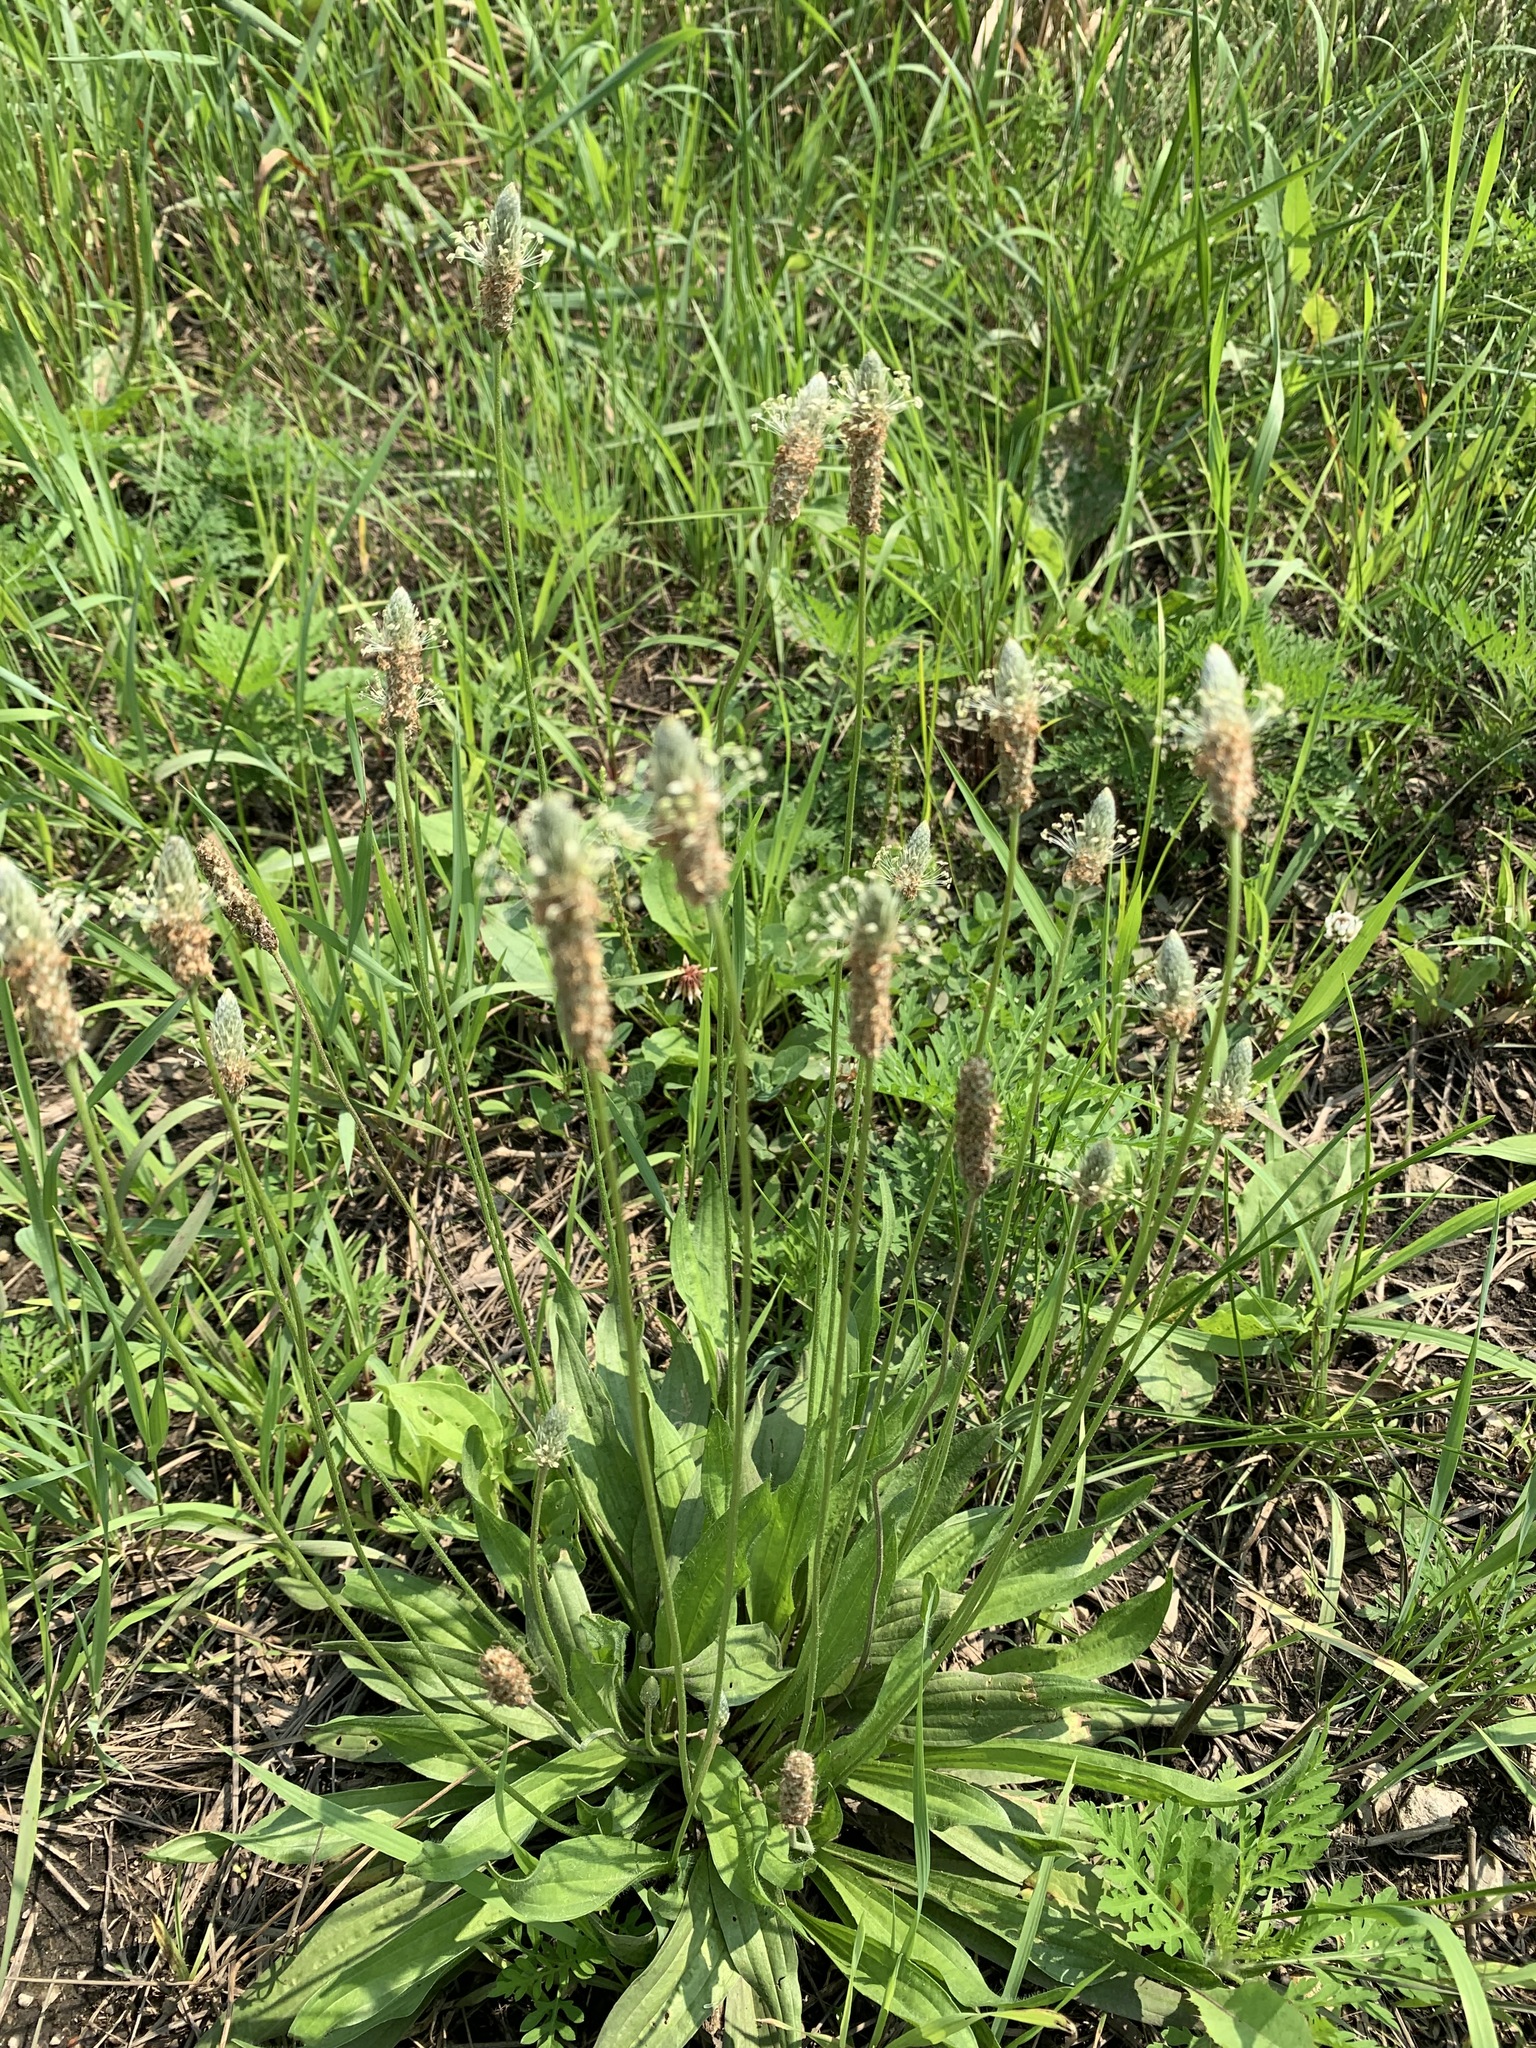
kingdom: Plantae
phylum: Tracheophyta
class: Magnoliopsida
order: Lamiales
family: Plantaginaceae
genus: Plantago
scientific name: Plantago lanceolata
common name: Ribwort plantain
